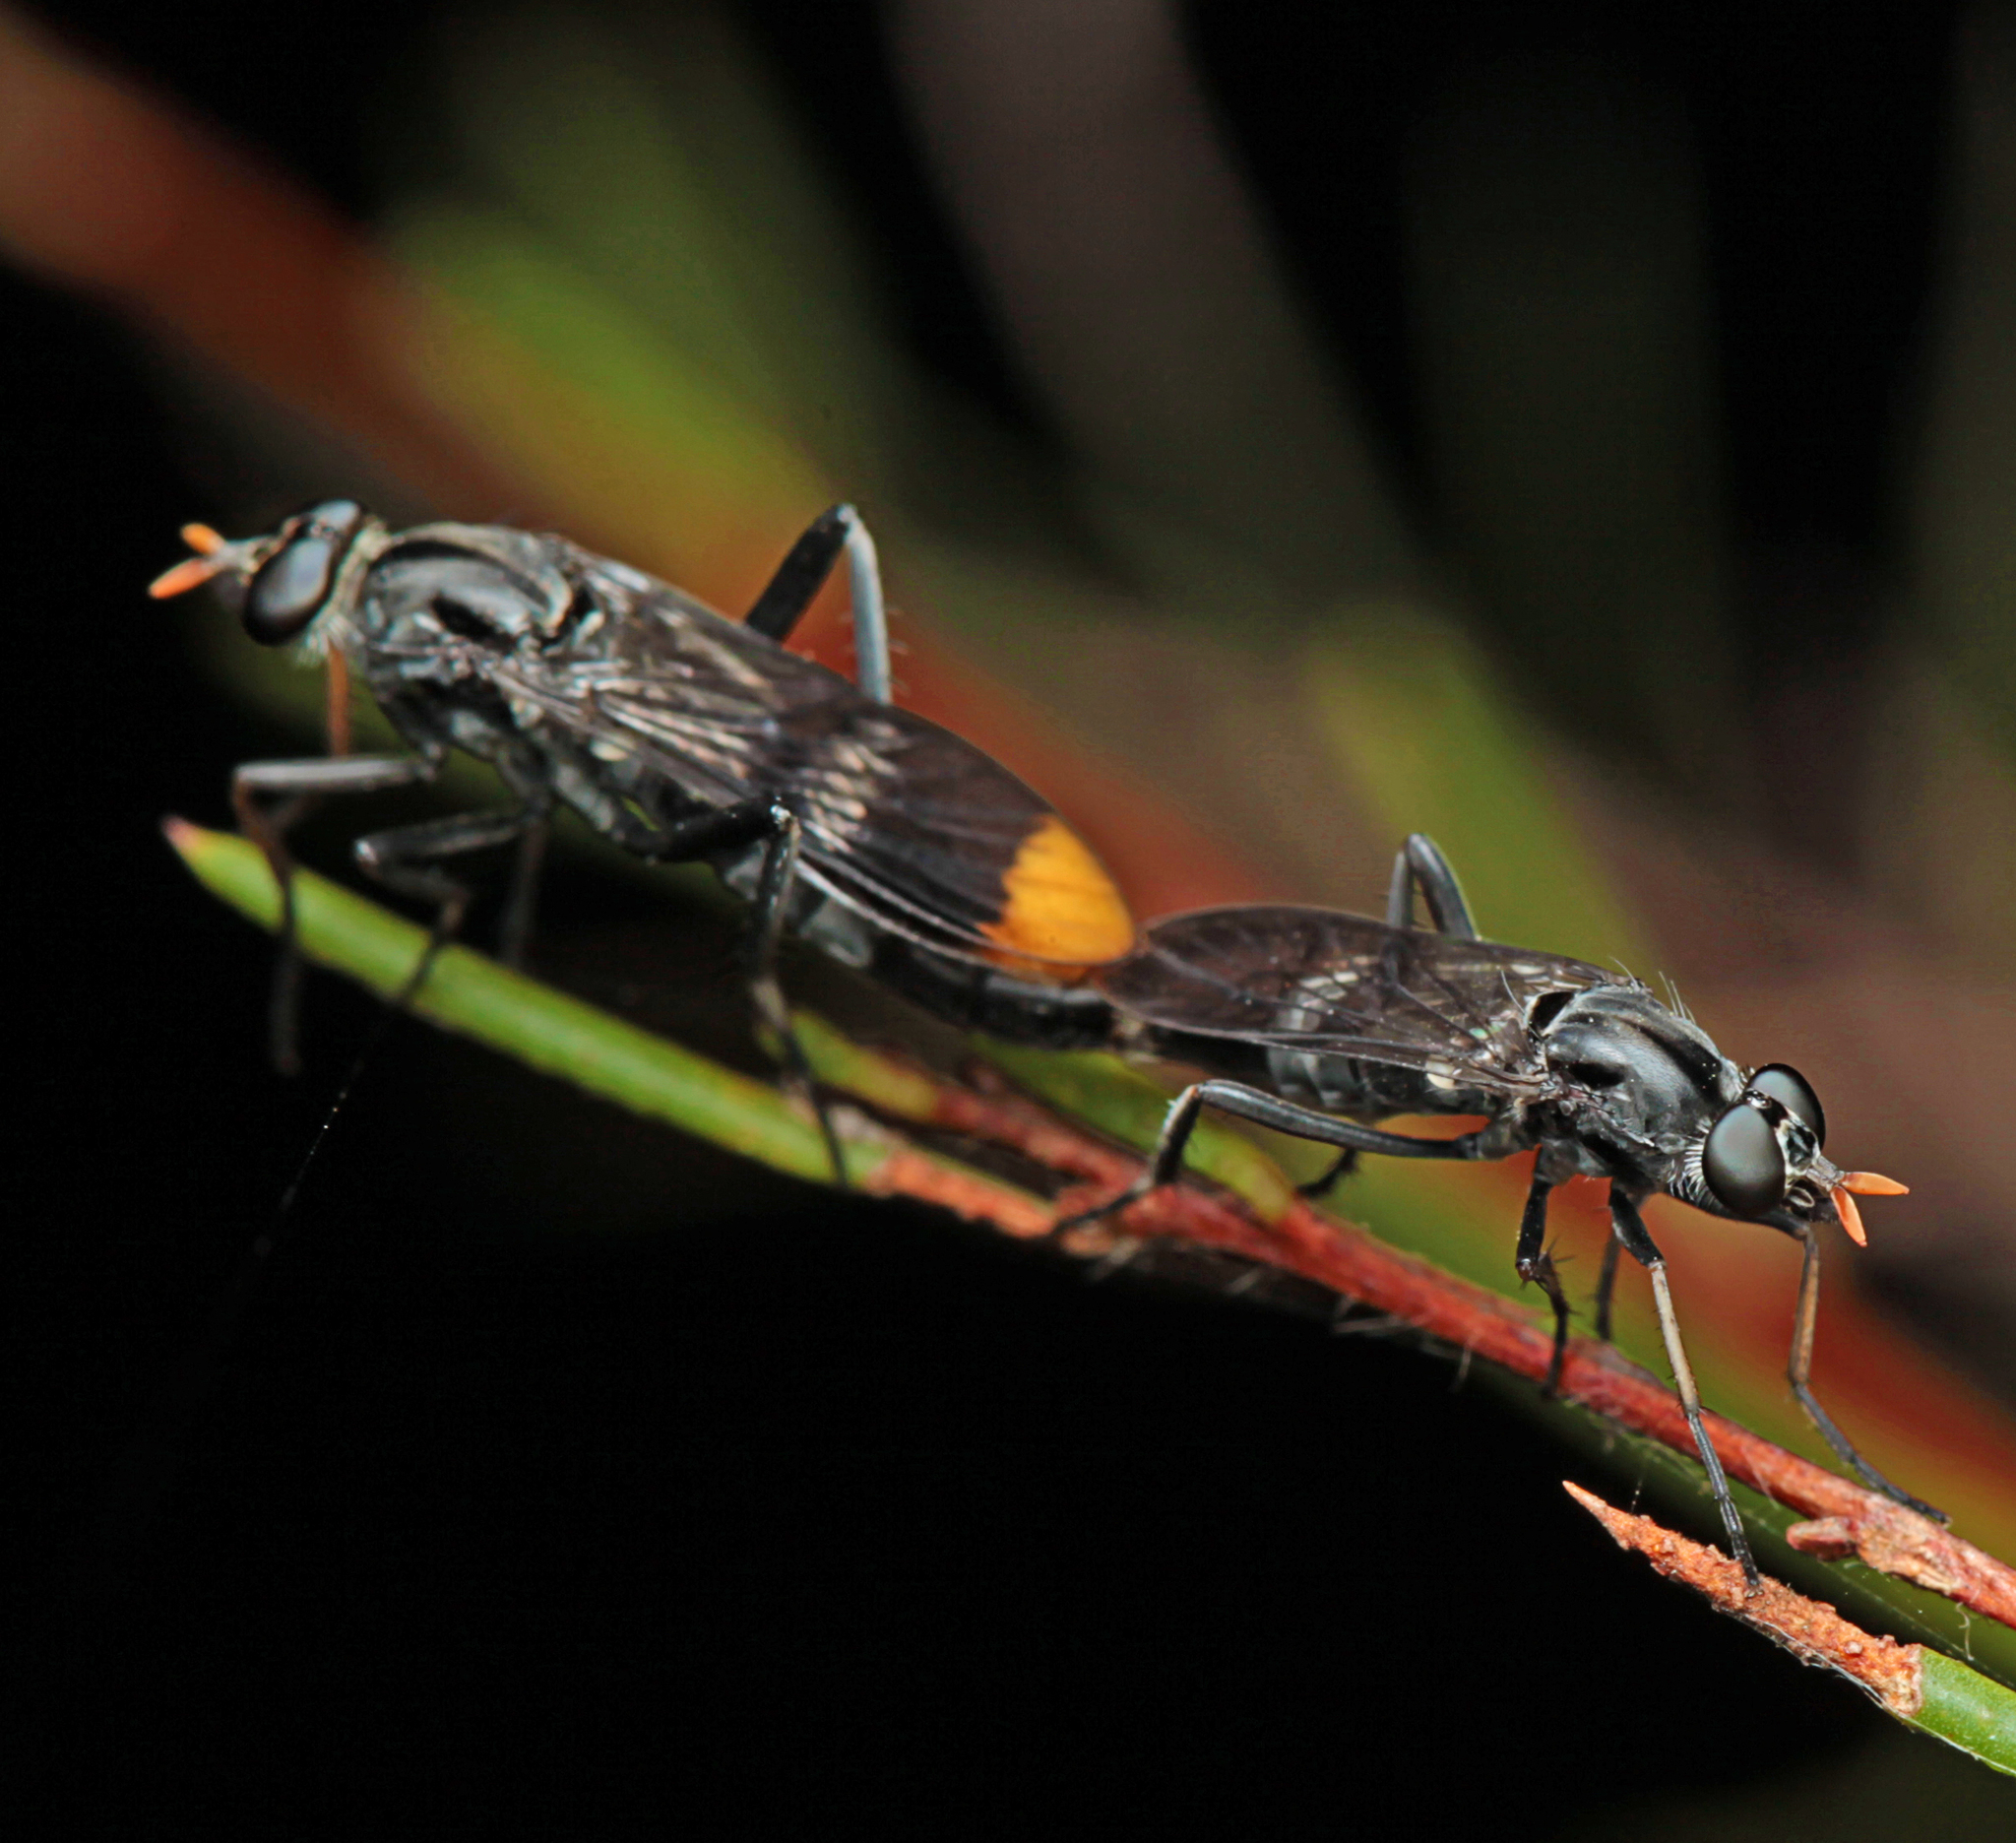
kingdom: Animalia
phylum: Arthropoda
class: Insecta
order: Diptera
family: Therevidae
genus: Ectinorhynchus
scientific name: Ectinorhynchus pyrrhotelus
